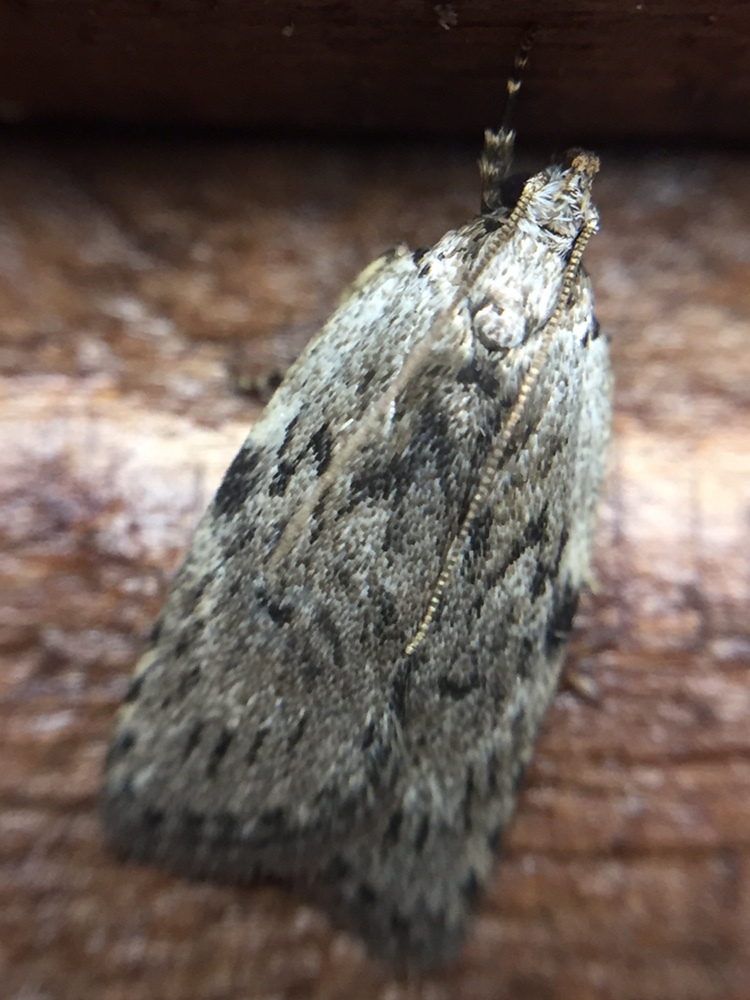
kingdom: Animalia
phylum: Arthropoda
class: Insecta
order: Lepidoptera
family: Depressariidae
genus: Phaeosaces
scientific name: Phaeosaces compsotypa
